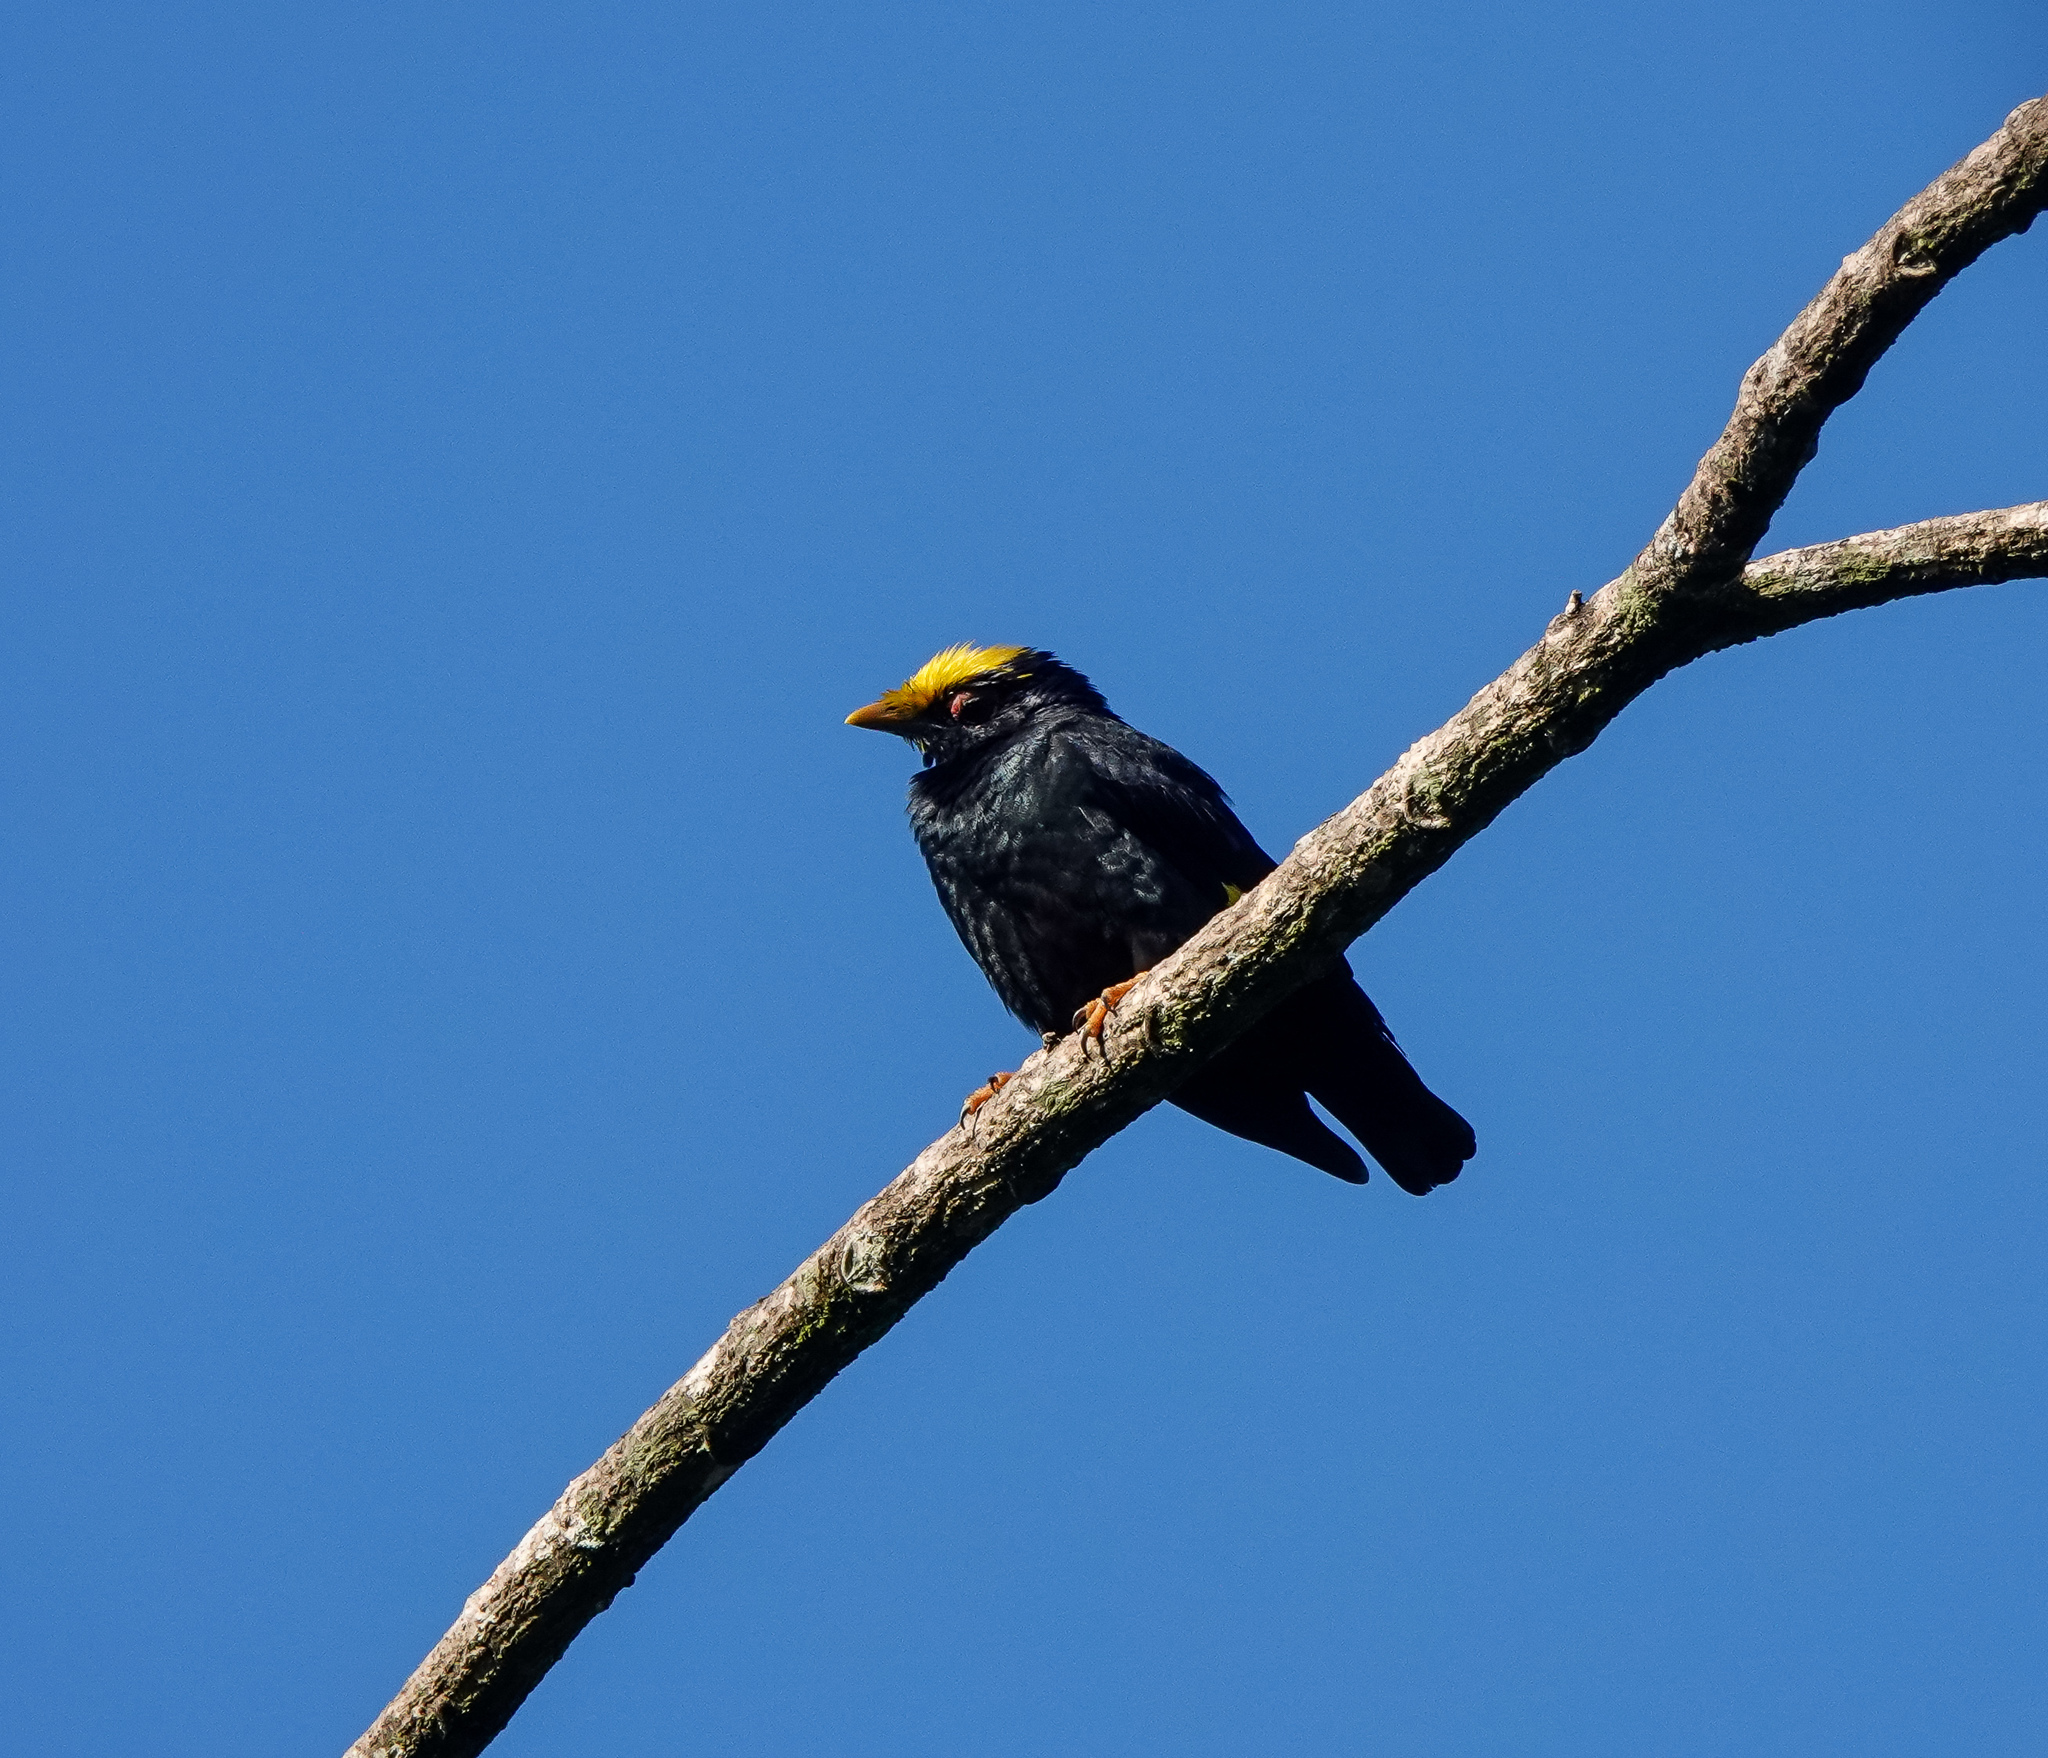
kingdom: Animalia
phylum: Chordata
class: Aves
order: Passeriformes
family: Sturnidae
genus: Ampeliceps
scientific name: Ampeliceps coronatus
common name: Golden-crested myna
